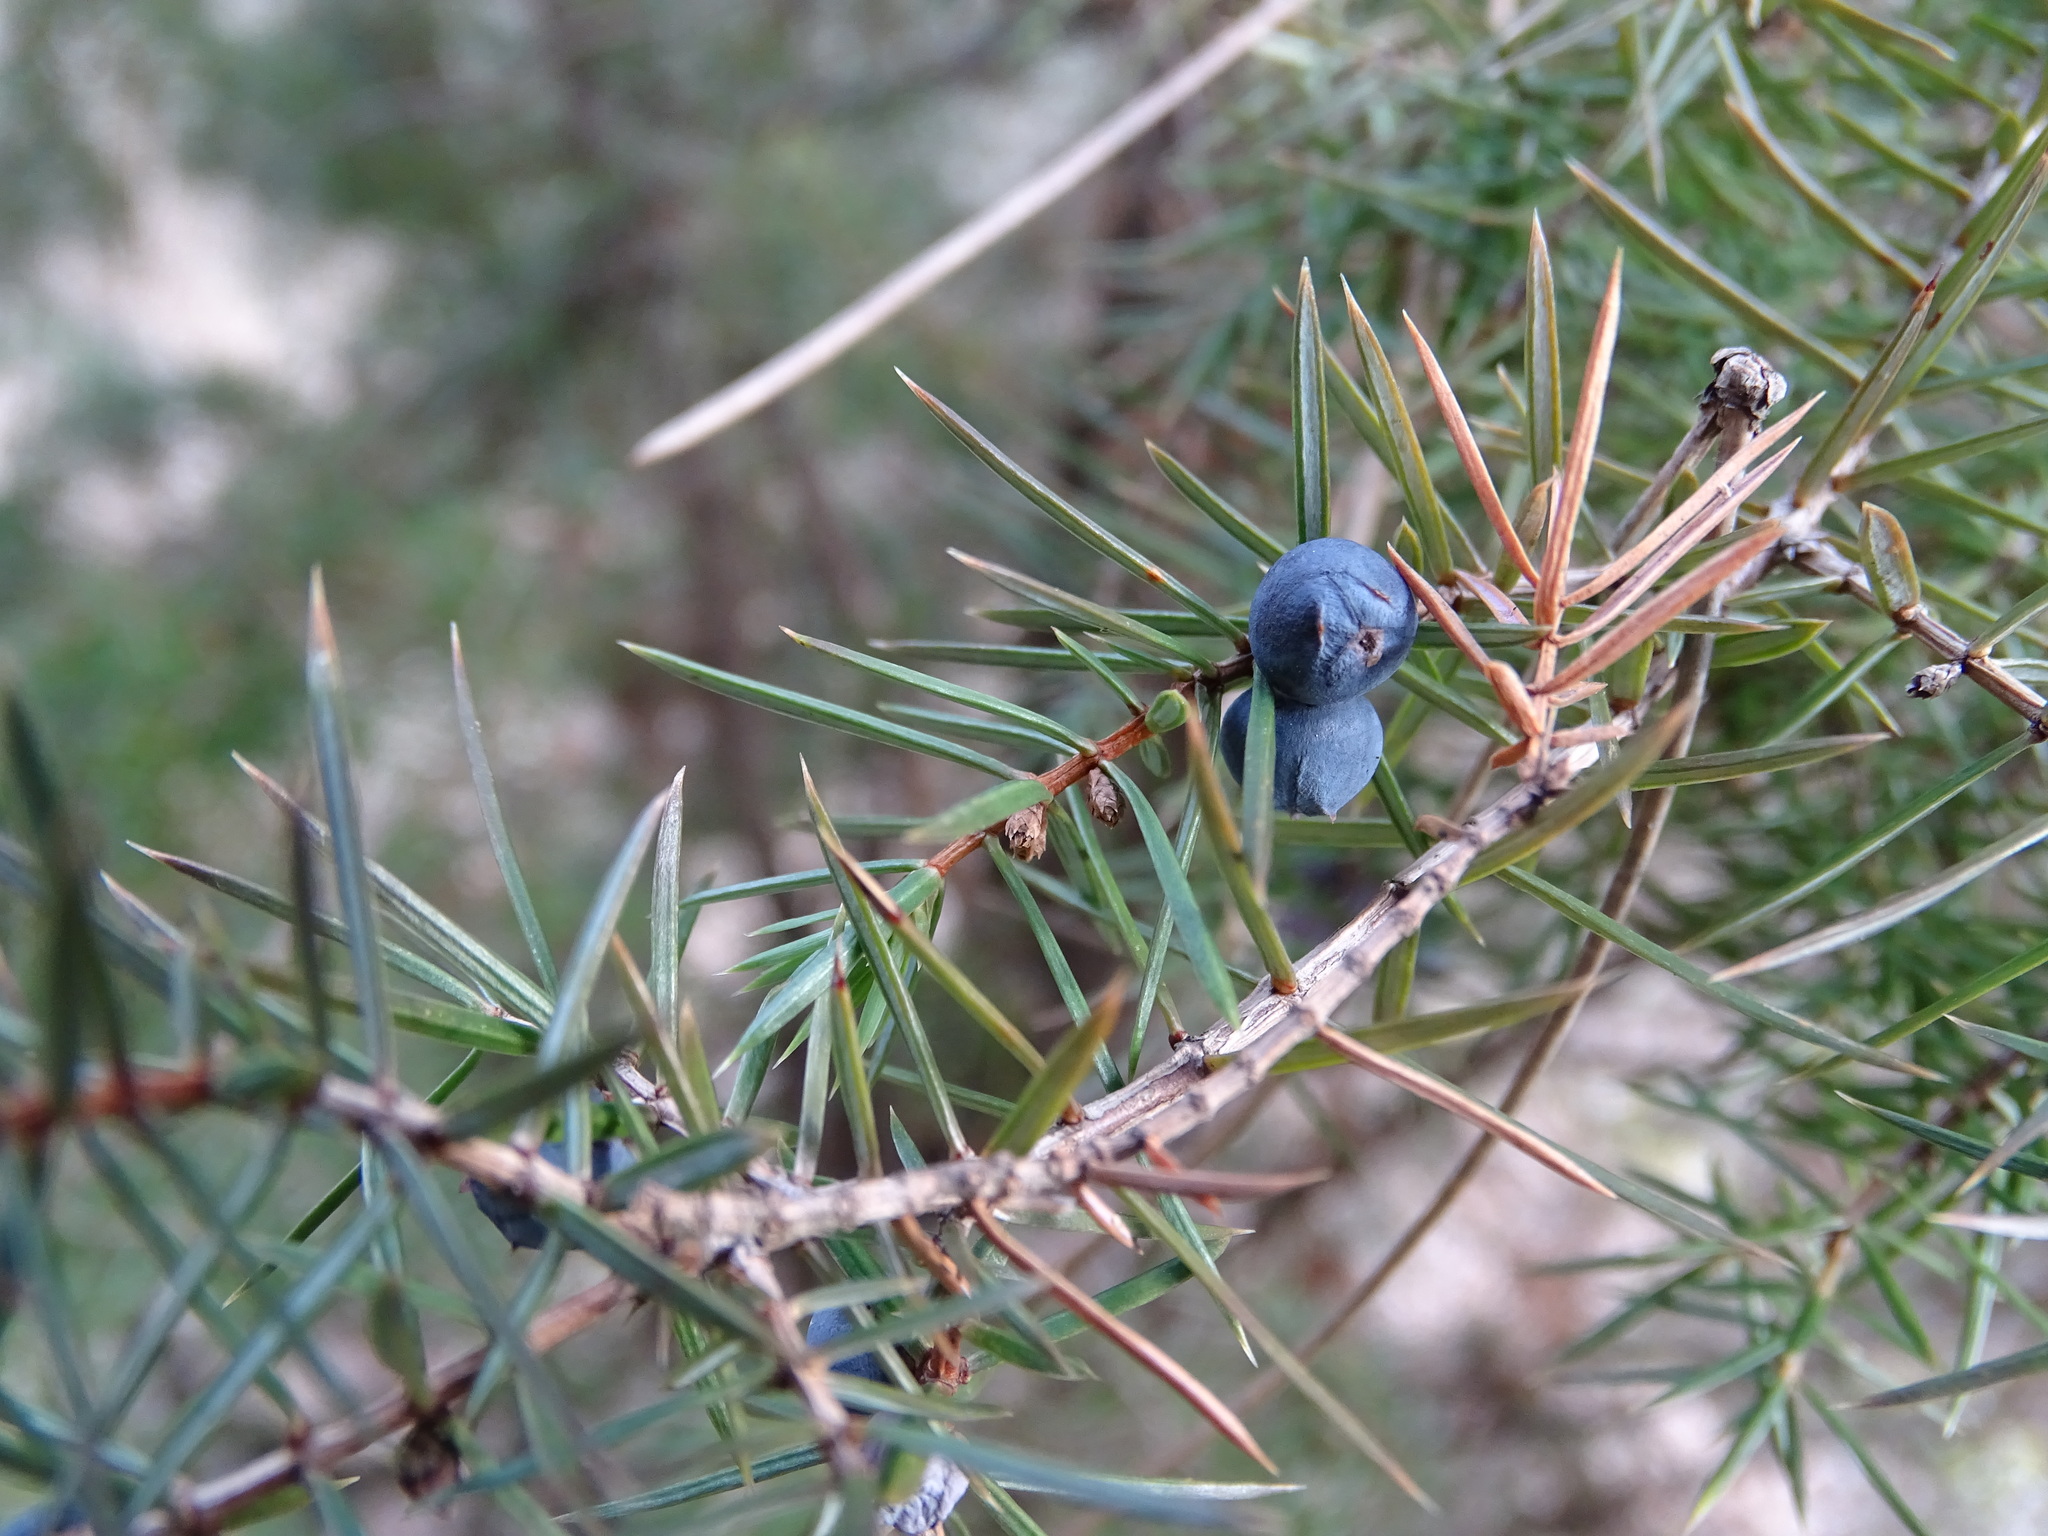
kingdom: Plantae
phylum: Tracheophyta
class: Pinopsida
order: Pinales
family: Cupressaceae
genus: Juniperus
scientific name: Juniperus communis
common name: Common juniper
